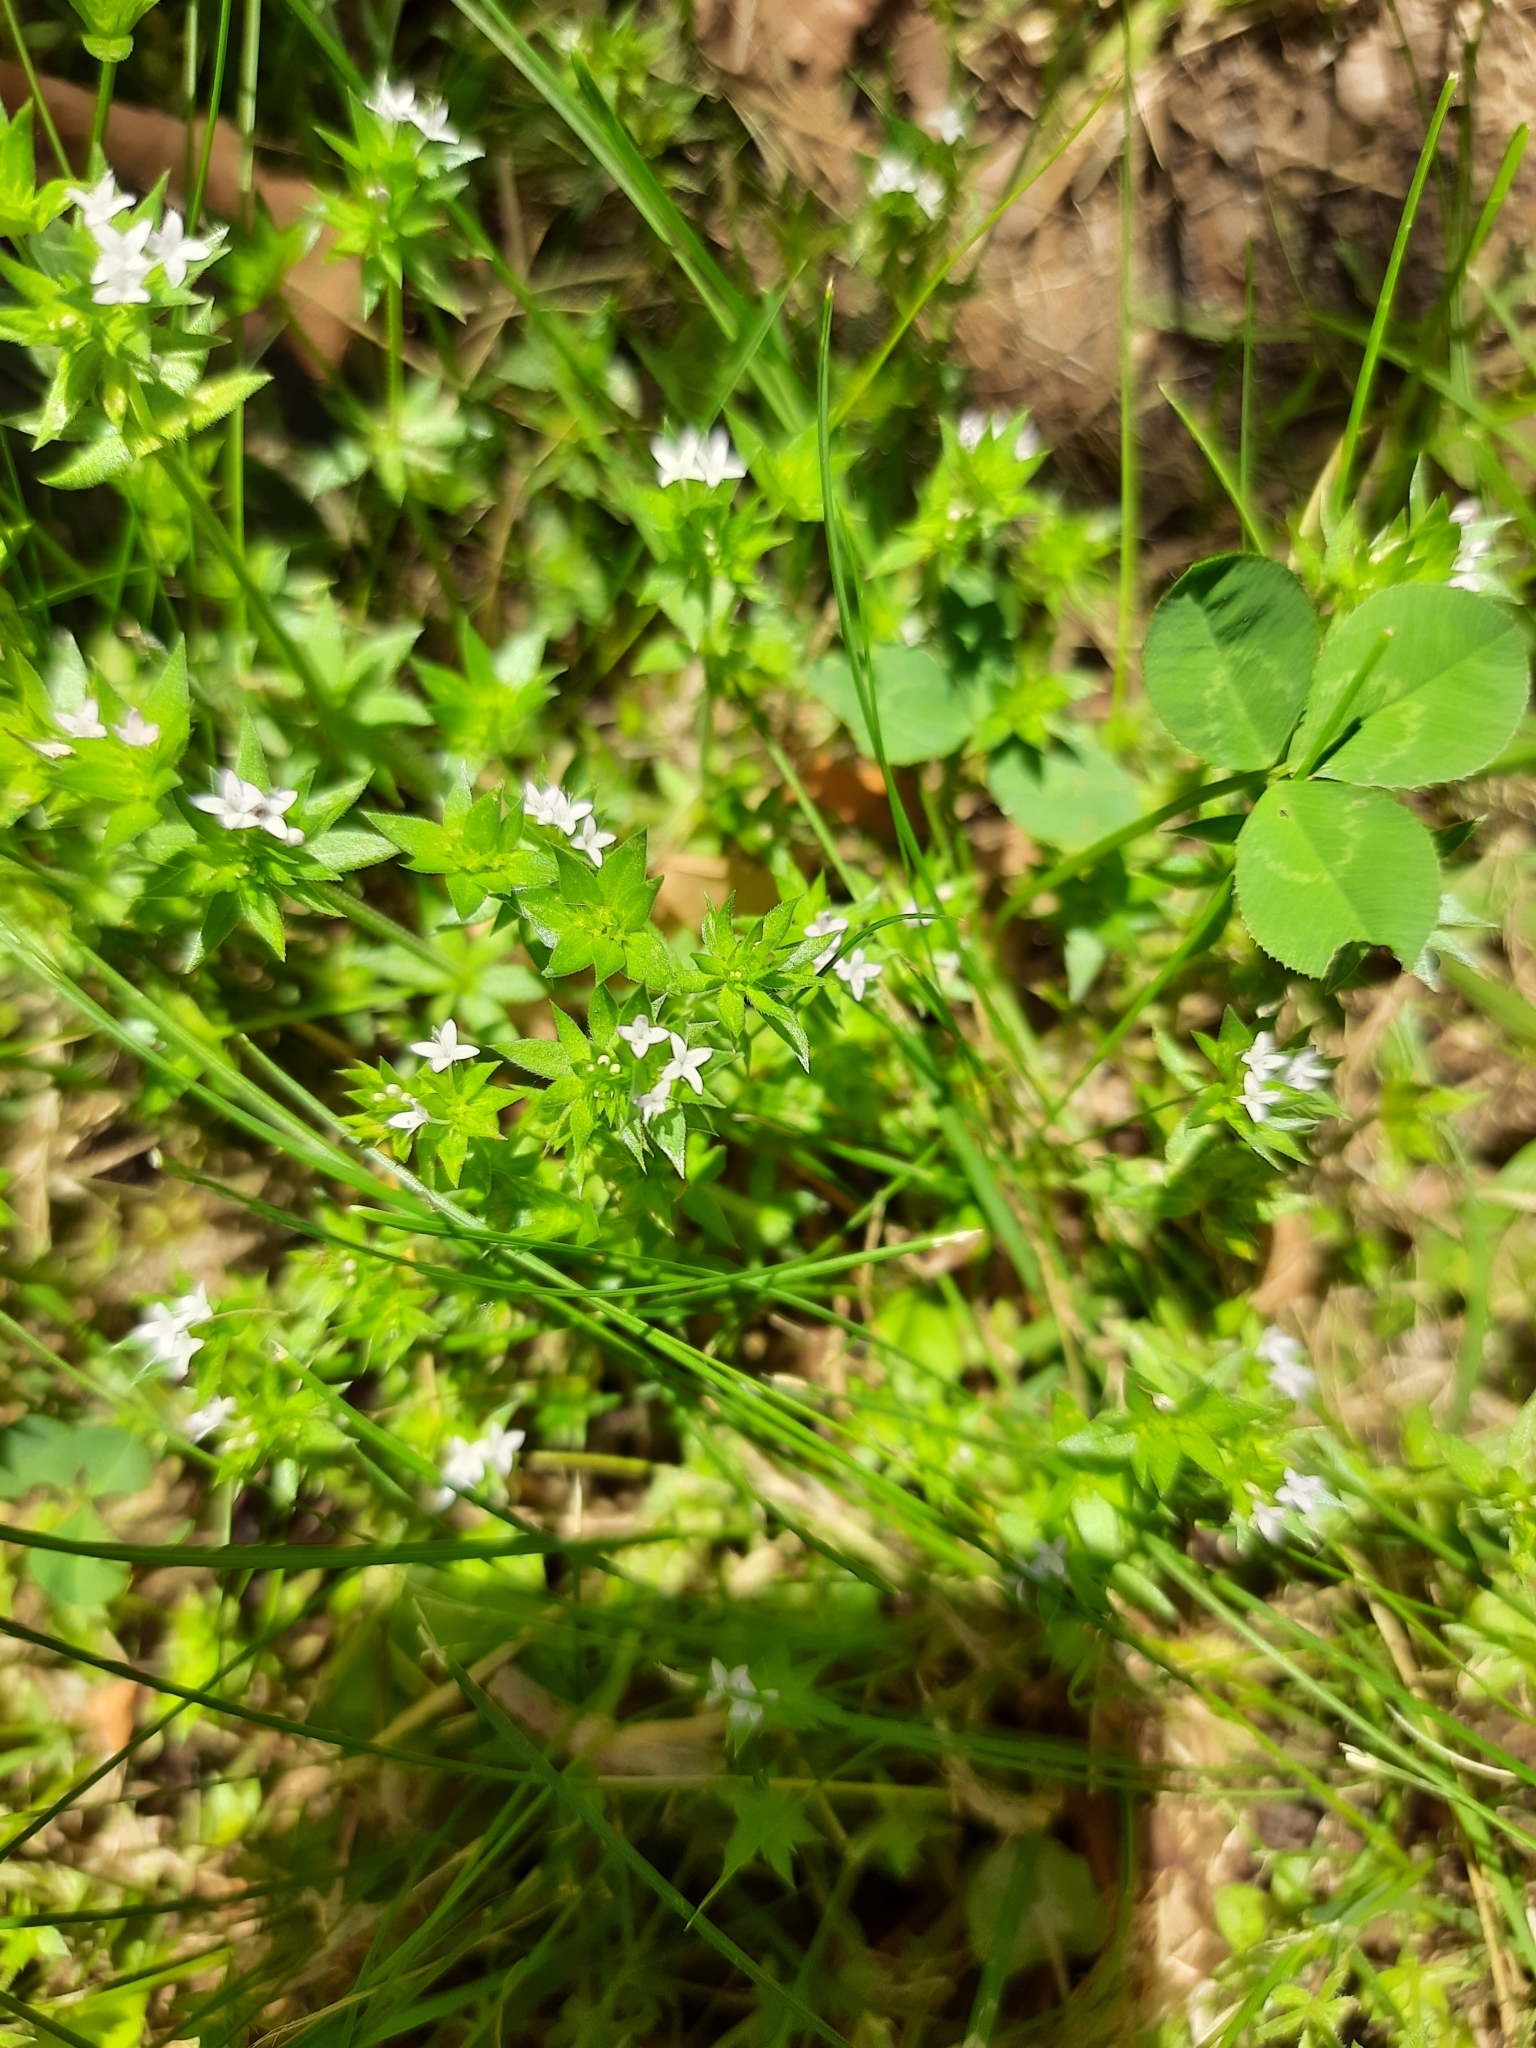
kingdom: Plantae
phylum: Tracheophyta
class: Magnoliopsida
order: Gentianales
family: Rubiaceae
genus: Sherardia
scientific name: Sherardia arvensis
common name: Field madder
